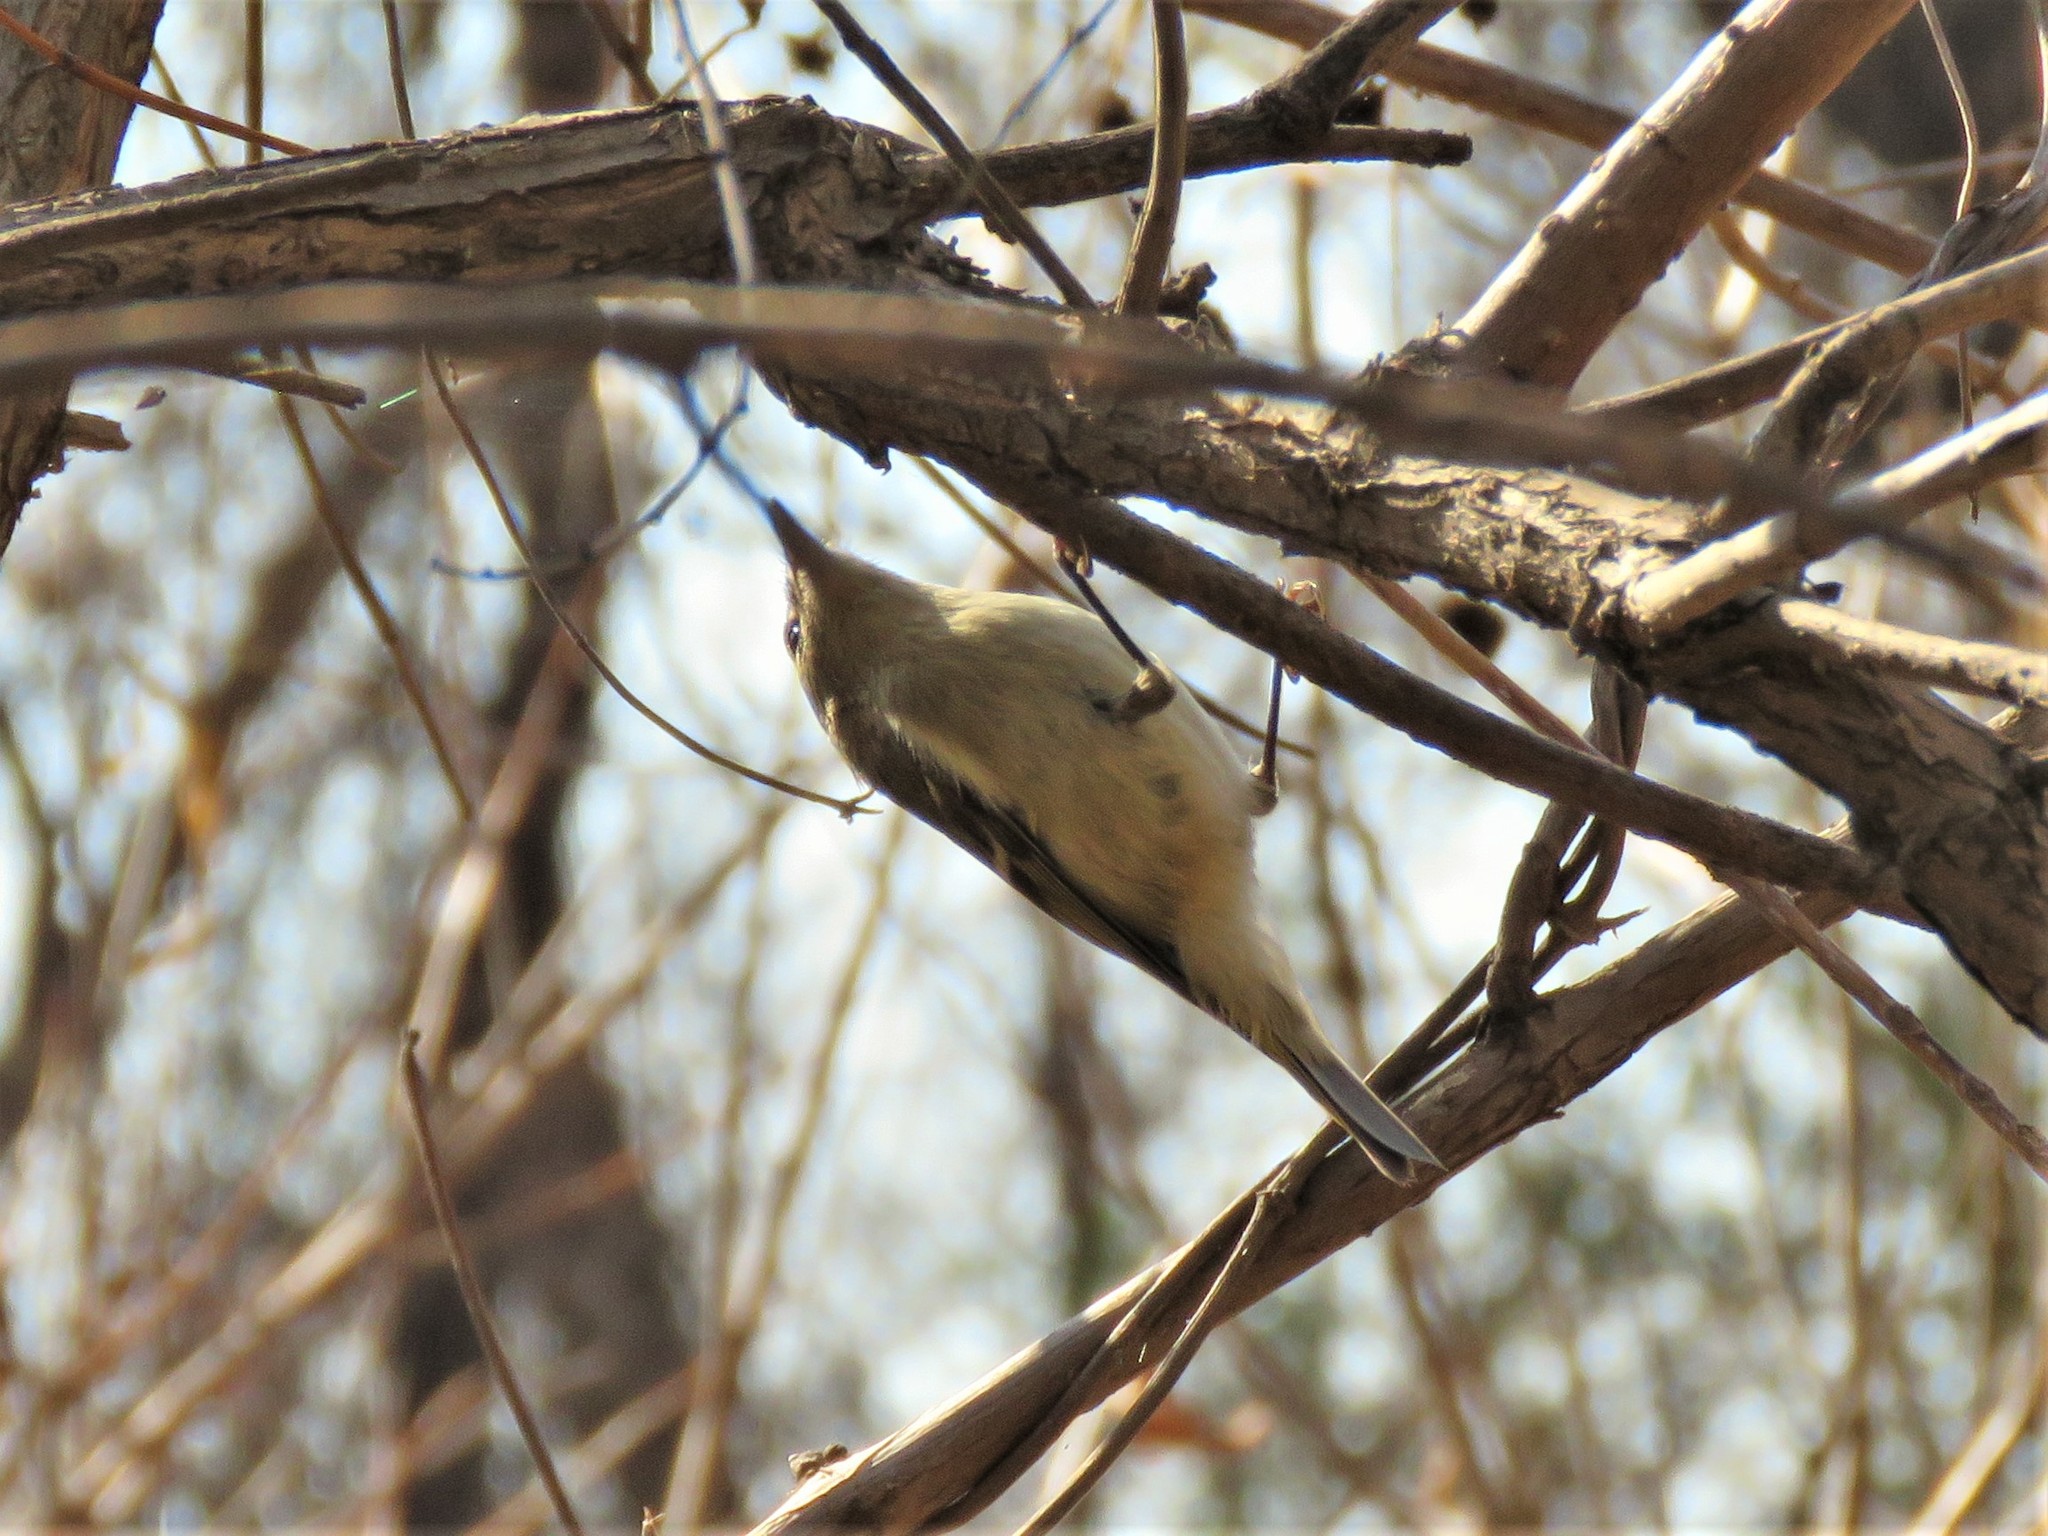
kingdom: Animalia
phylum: Chordata
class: Aves
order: Passeriformes
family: Regulidae
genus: Regulus
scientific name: Regulus calendula
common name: Ruby-crowned kinglet
